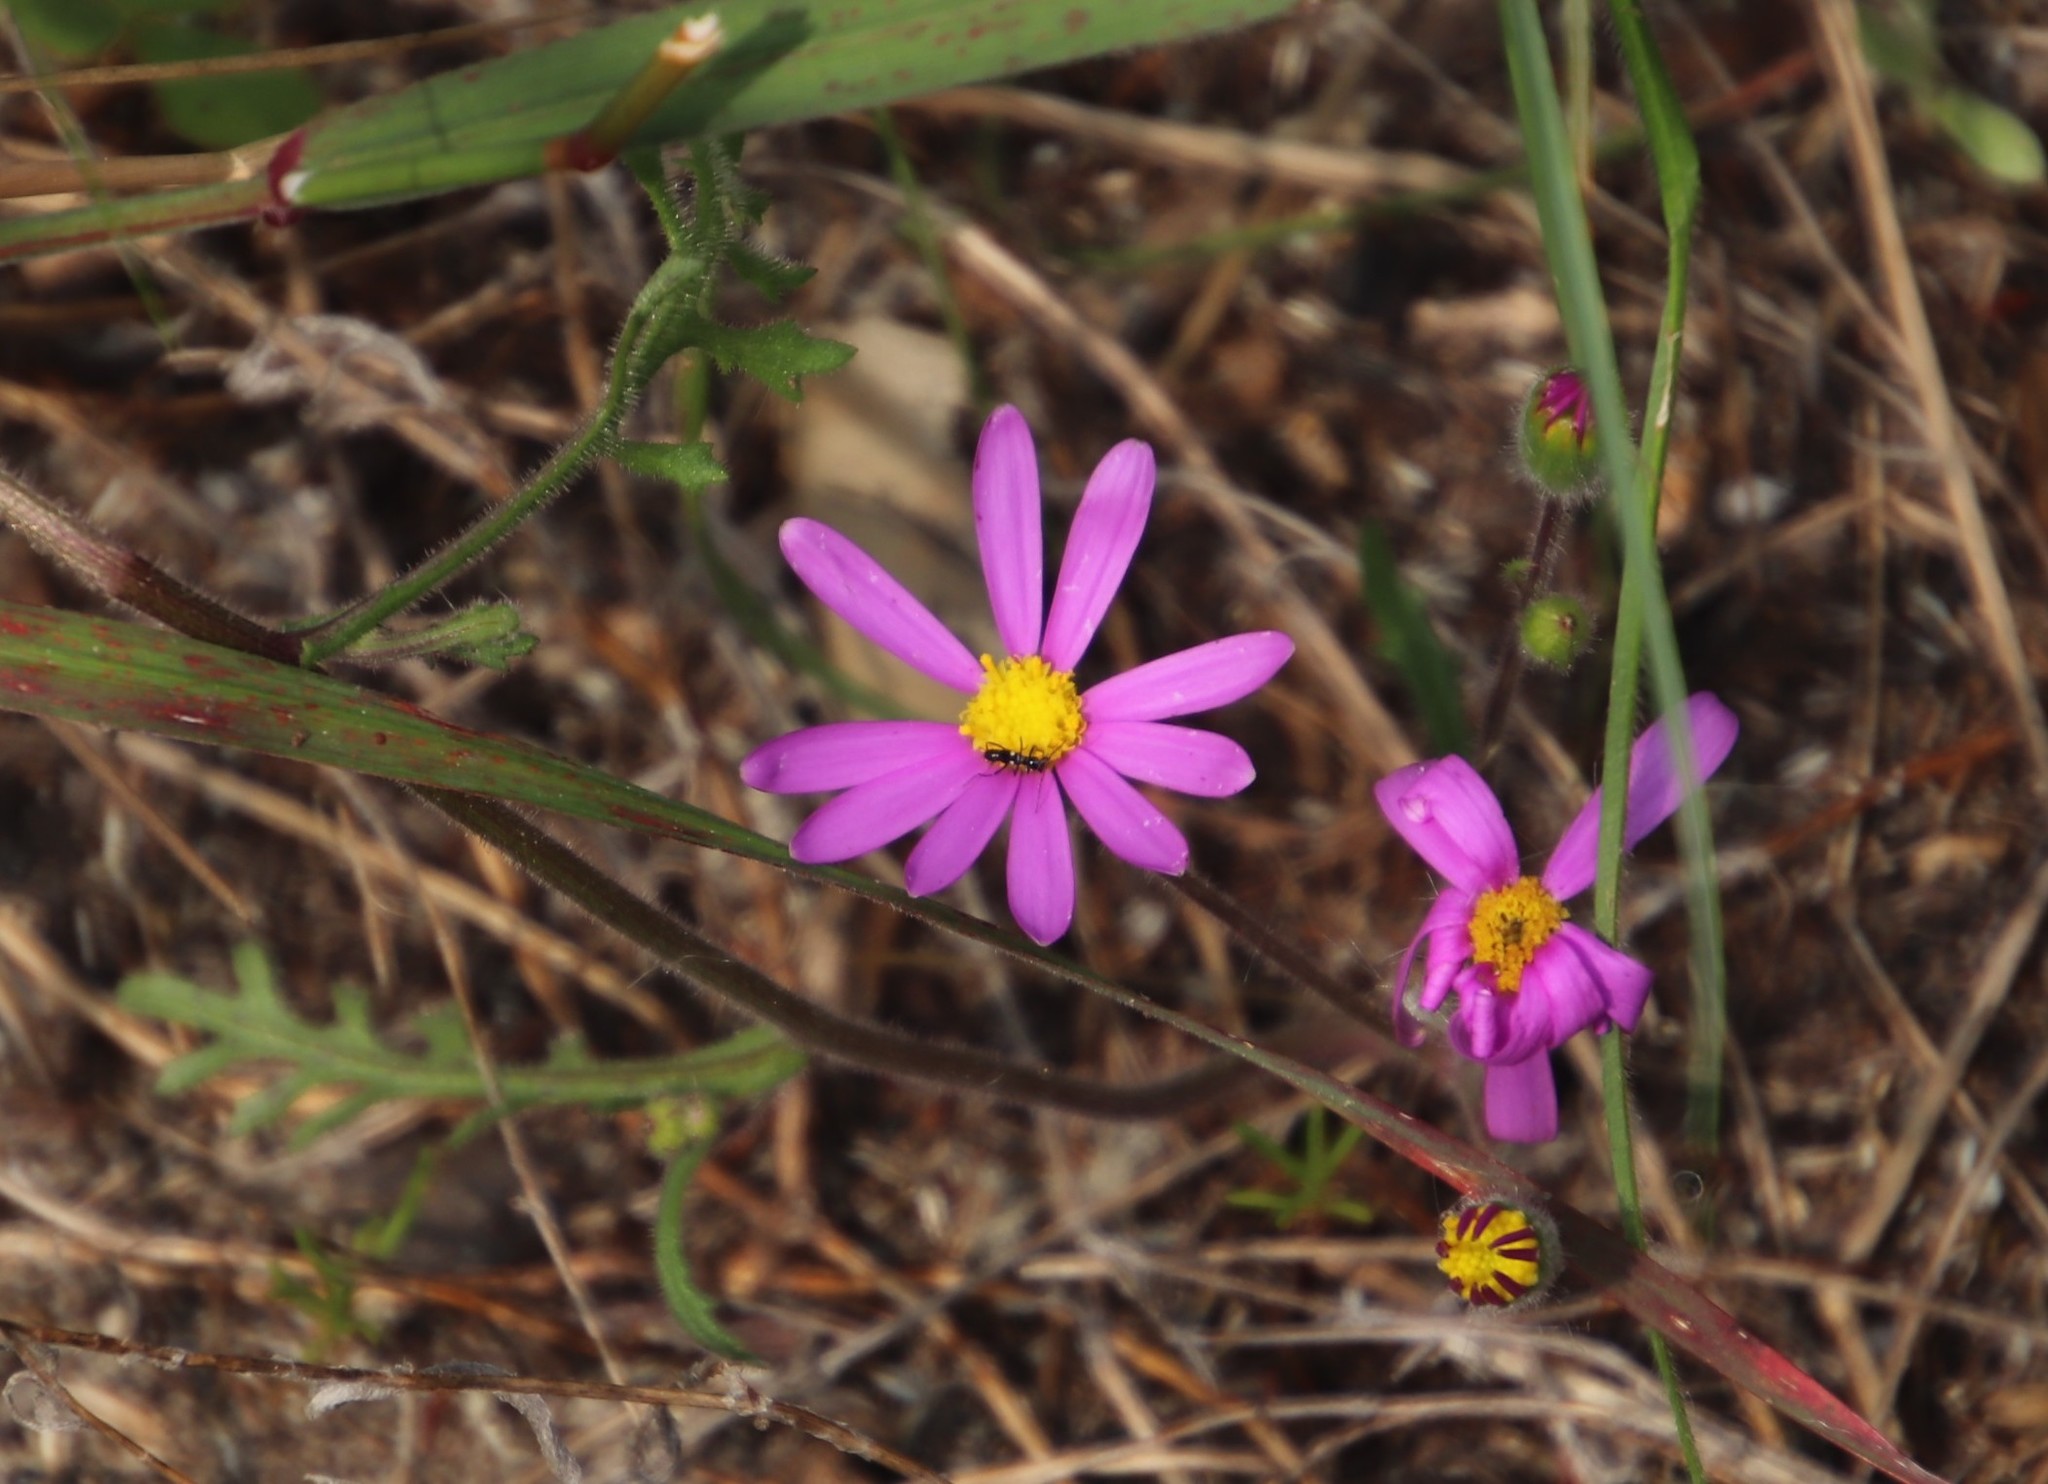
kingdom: Plantae
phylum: Tracheophyta
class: Magnoliopsida
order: Asterales
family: Asteraceae
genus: Senecio
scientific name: Senecio arenarius
